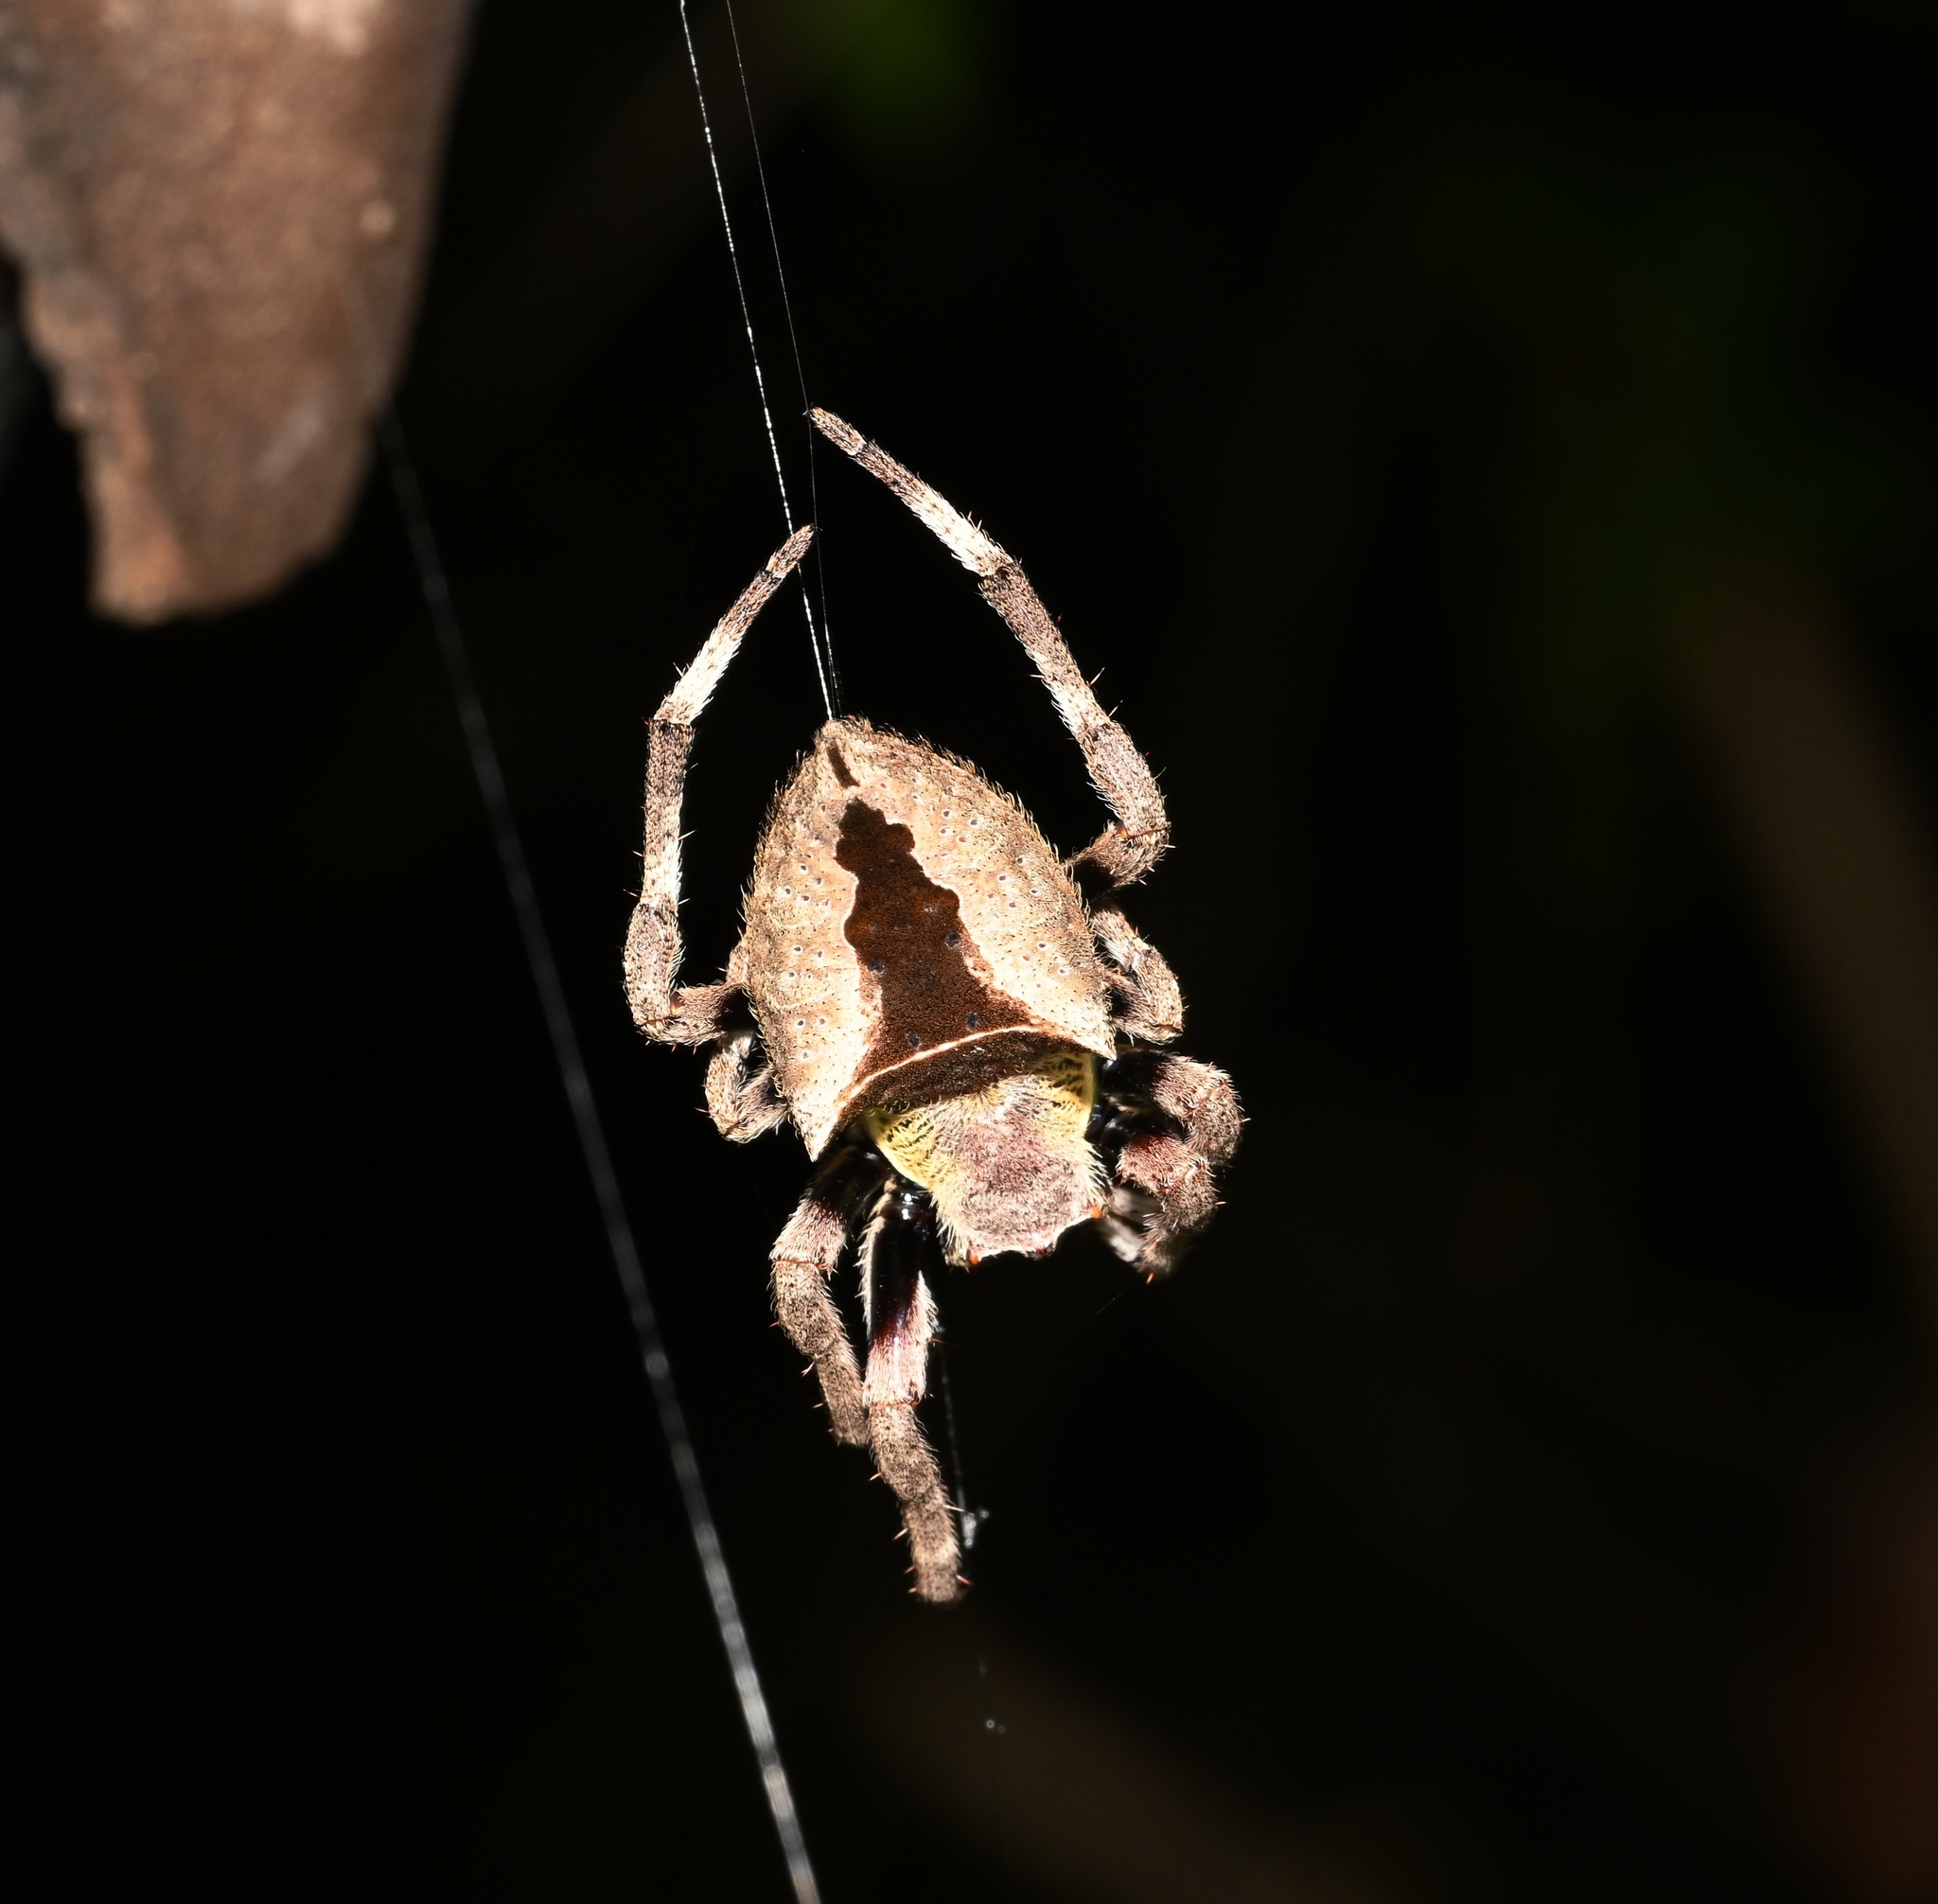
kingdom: Animalia
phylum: Arthropoda
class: Arachnida
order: Araneae
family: Araneidae
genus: Parawixia
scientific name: Parawixia dehaani
